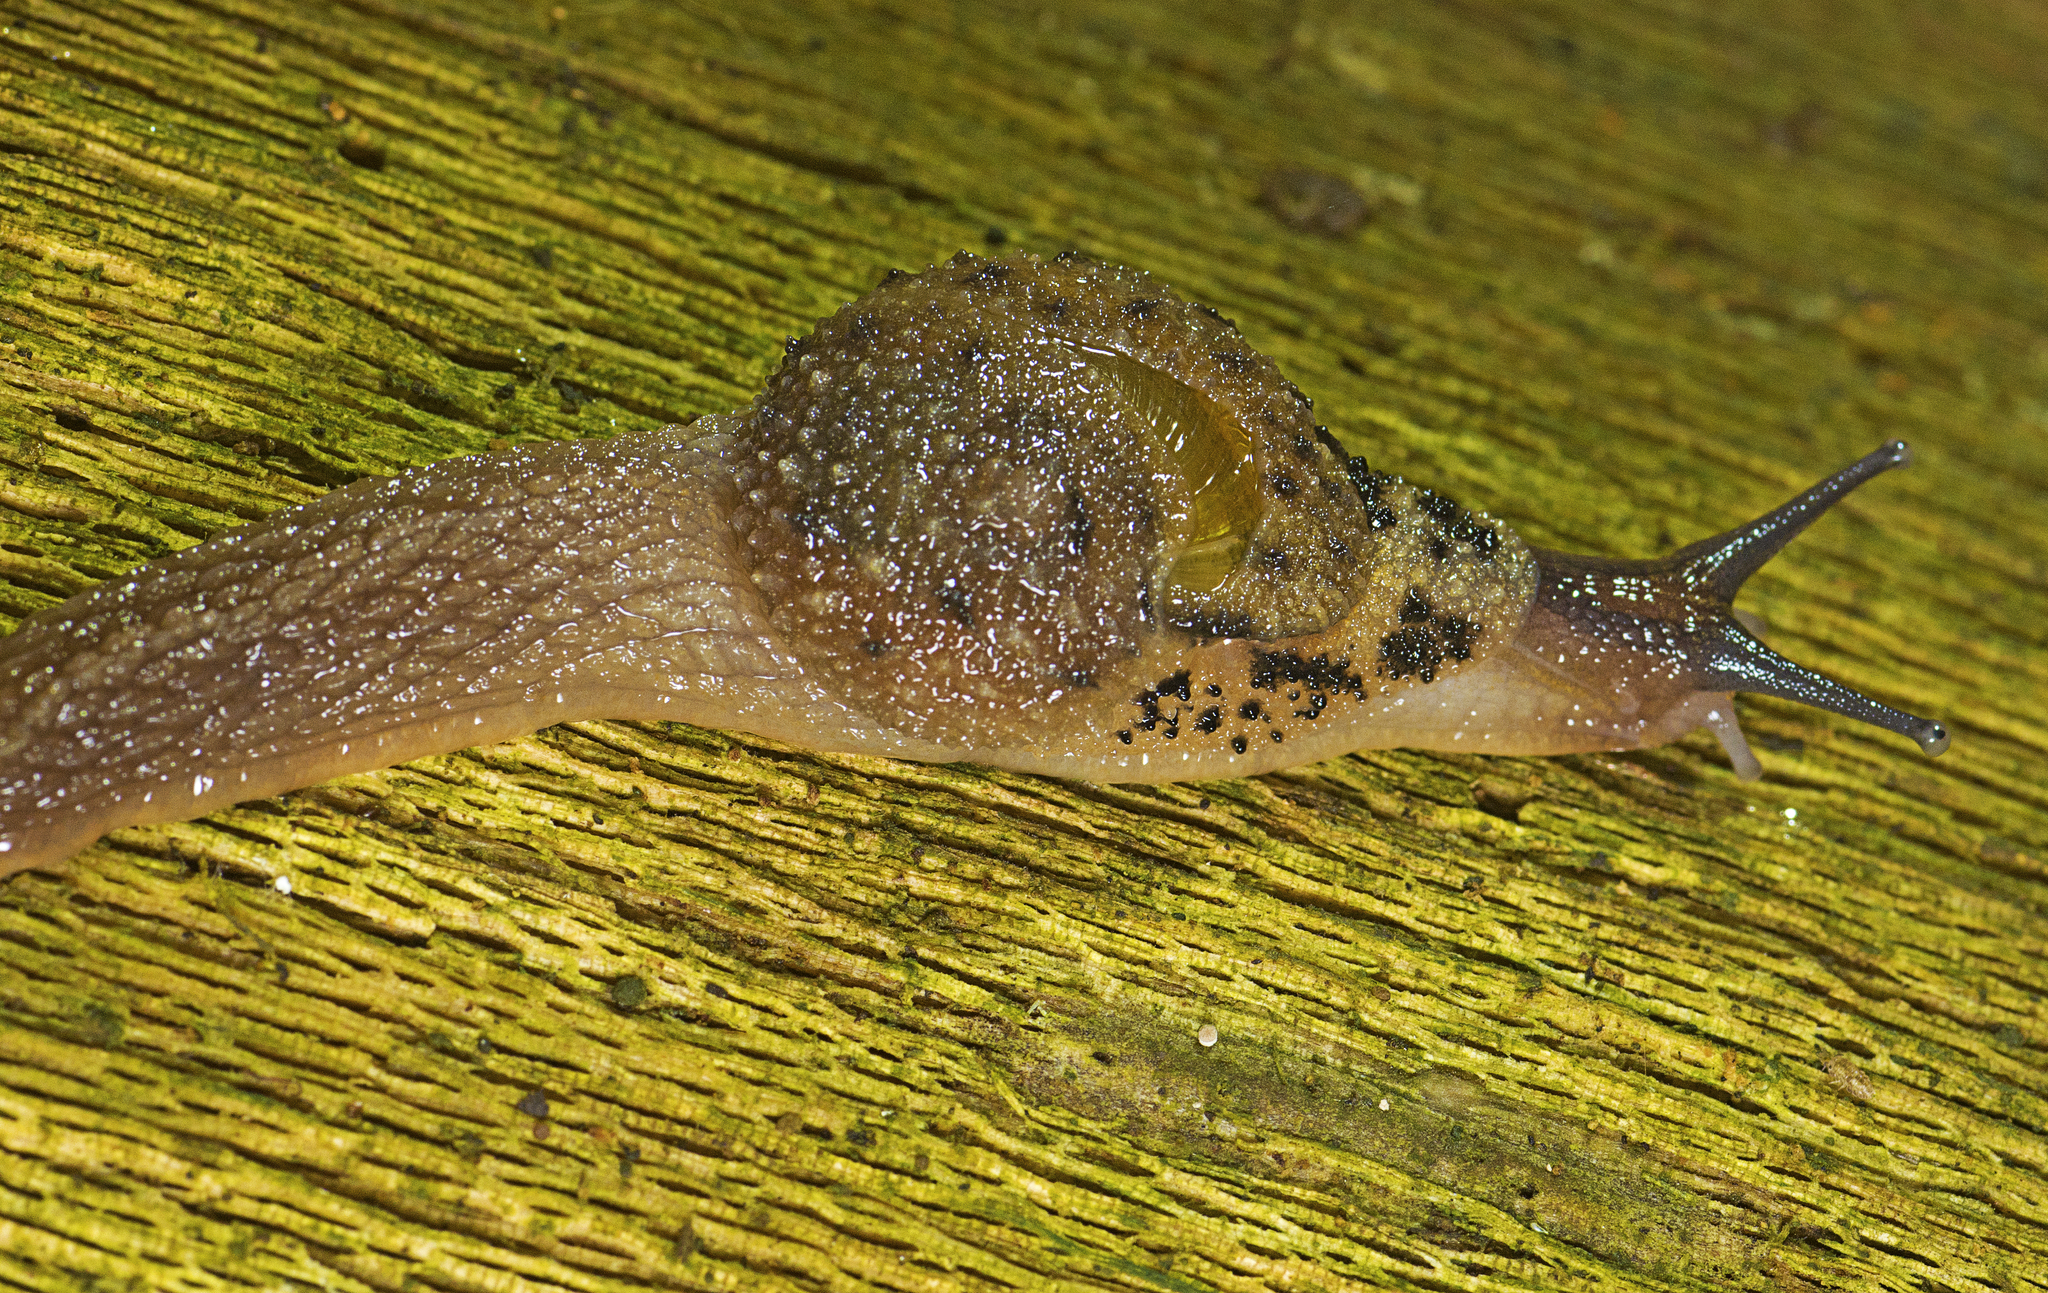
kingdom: Animalia
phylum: Mollusca
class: Gastropoda
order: Stylommatophora
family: Helicarionidae
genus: Stanisicarion
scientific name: Stanisicarion aquila
